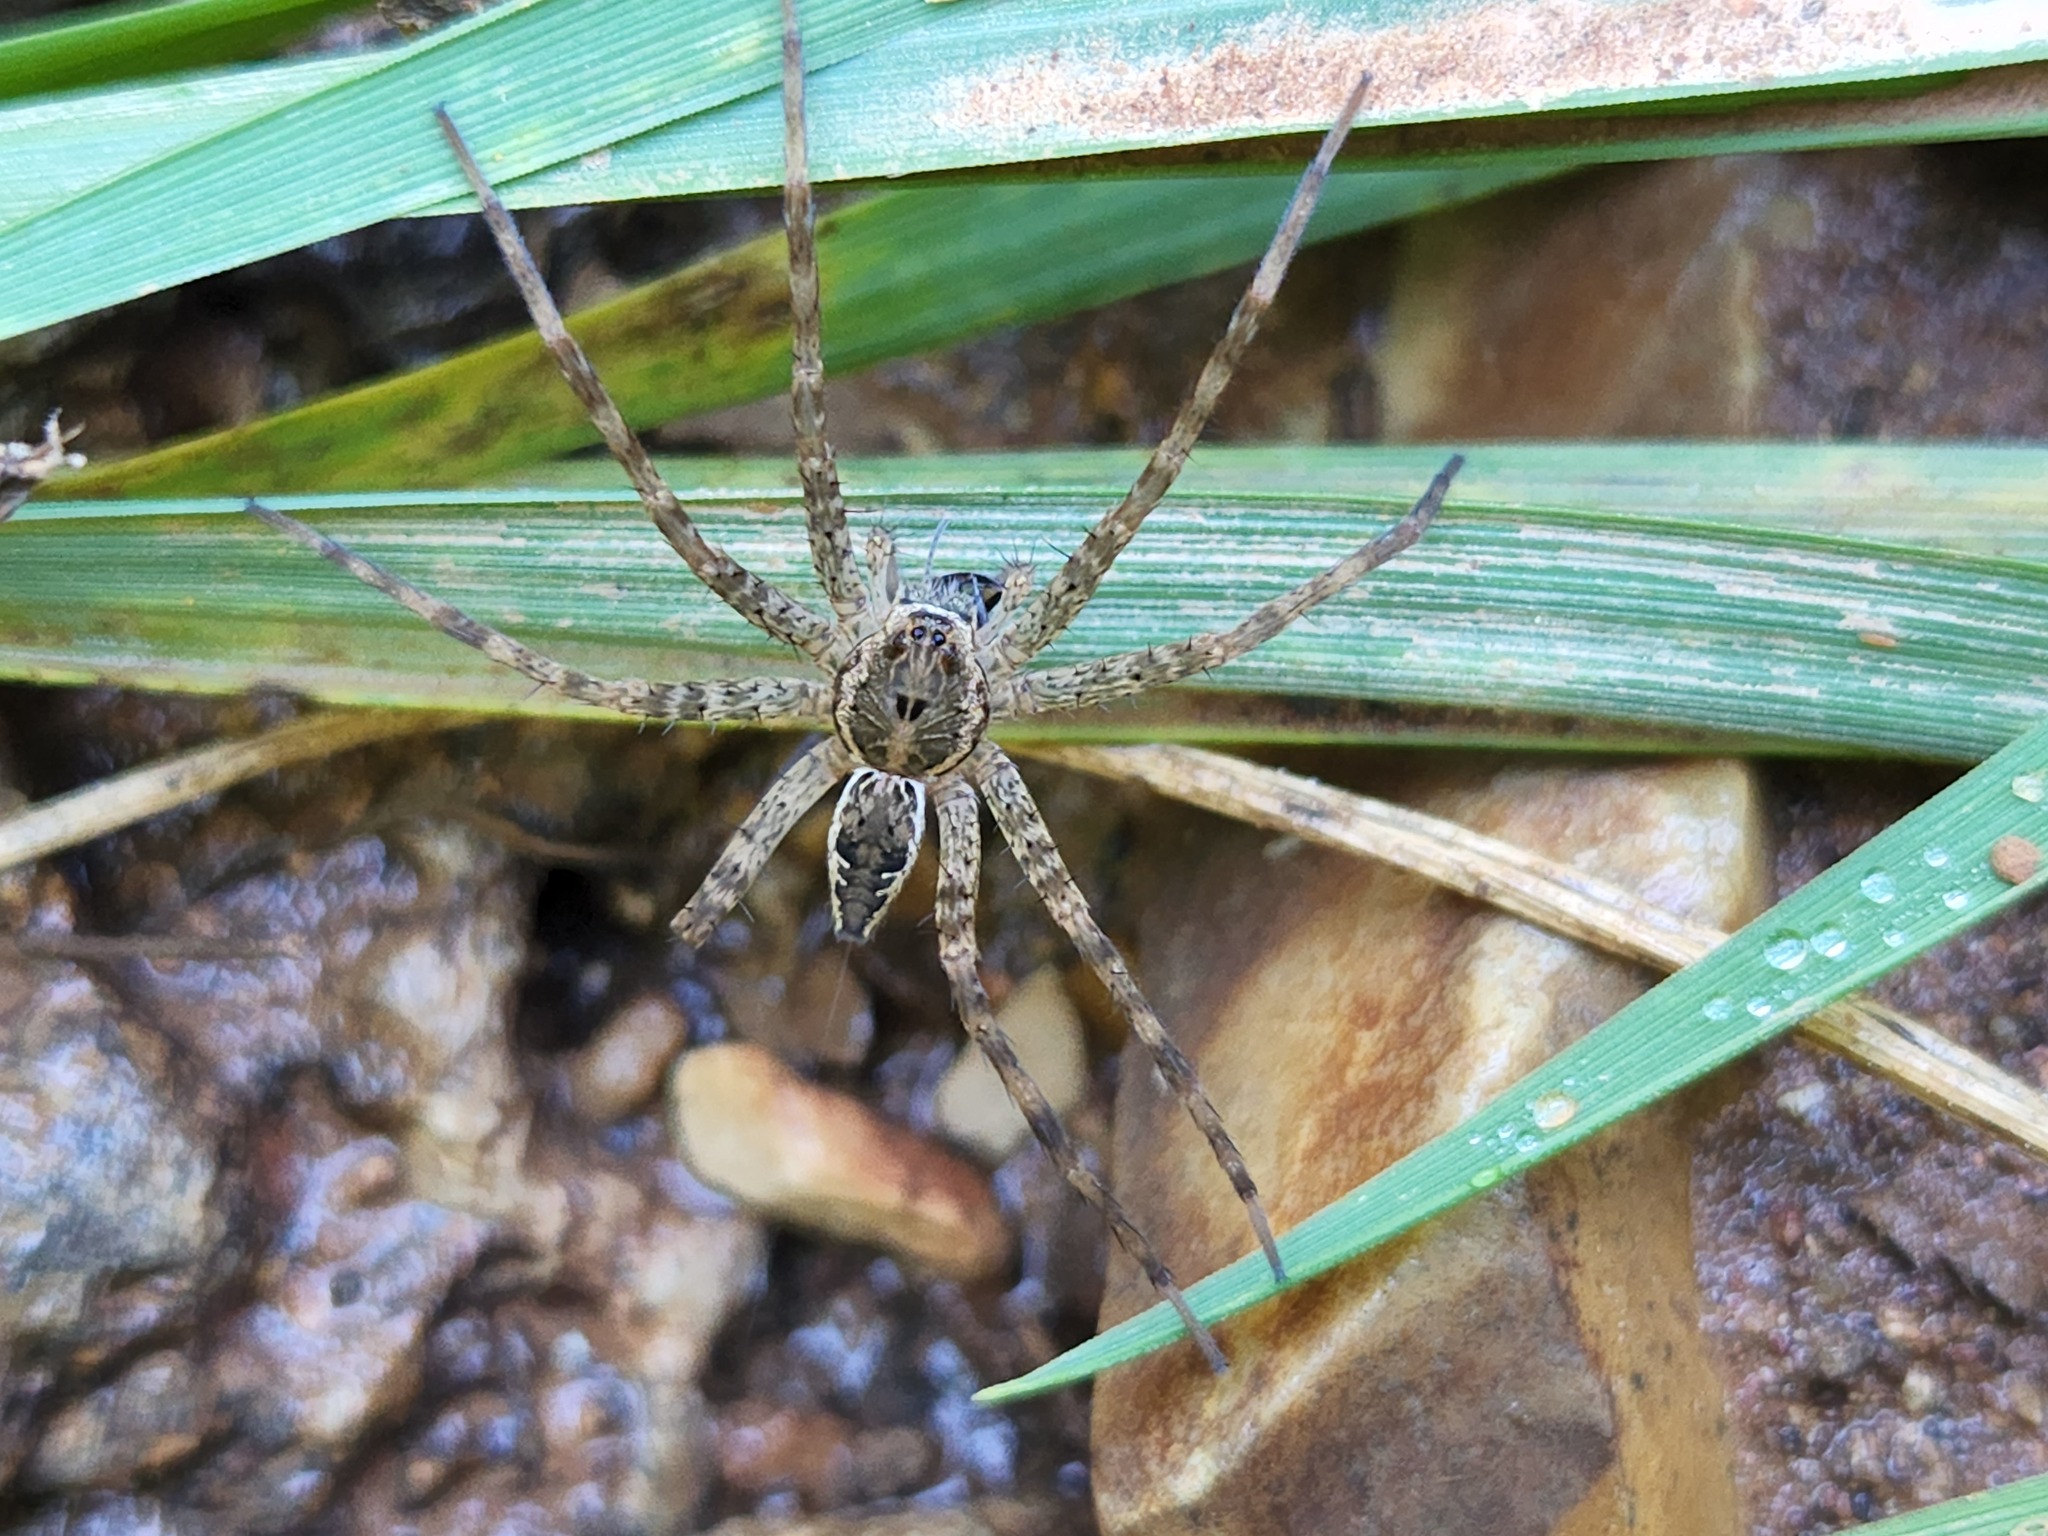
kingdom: Animalia
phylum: Arthropoda
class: Arachnida
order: Araneae
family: Pisauridae
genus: Dolomedes
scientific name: Dolomedes vittatus
